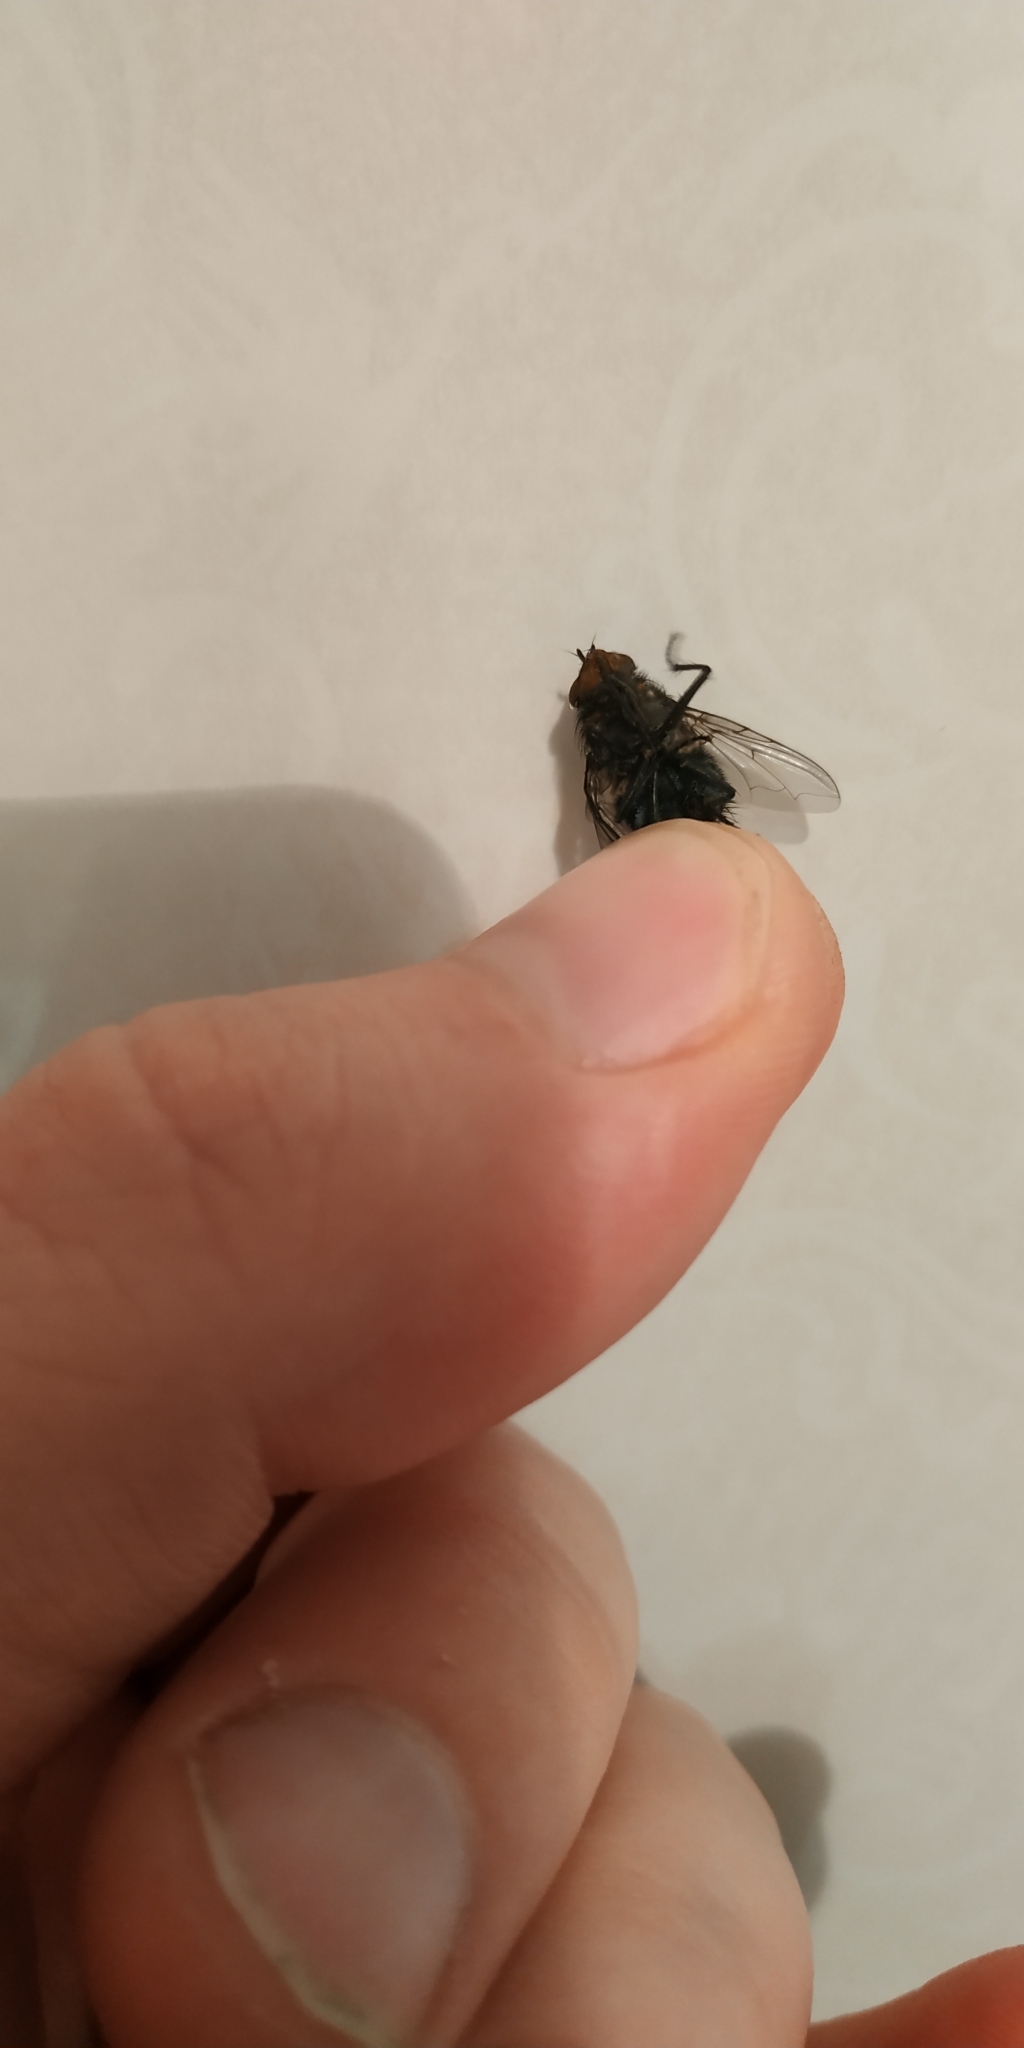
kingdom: Animalia
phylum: Arthropoda
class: Insecta
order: Diptera
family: Calliphoridae
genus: Calliphora
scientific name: Calliphora vicina
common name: Common blow flie
